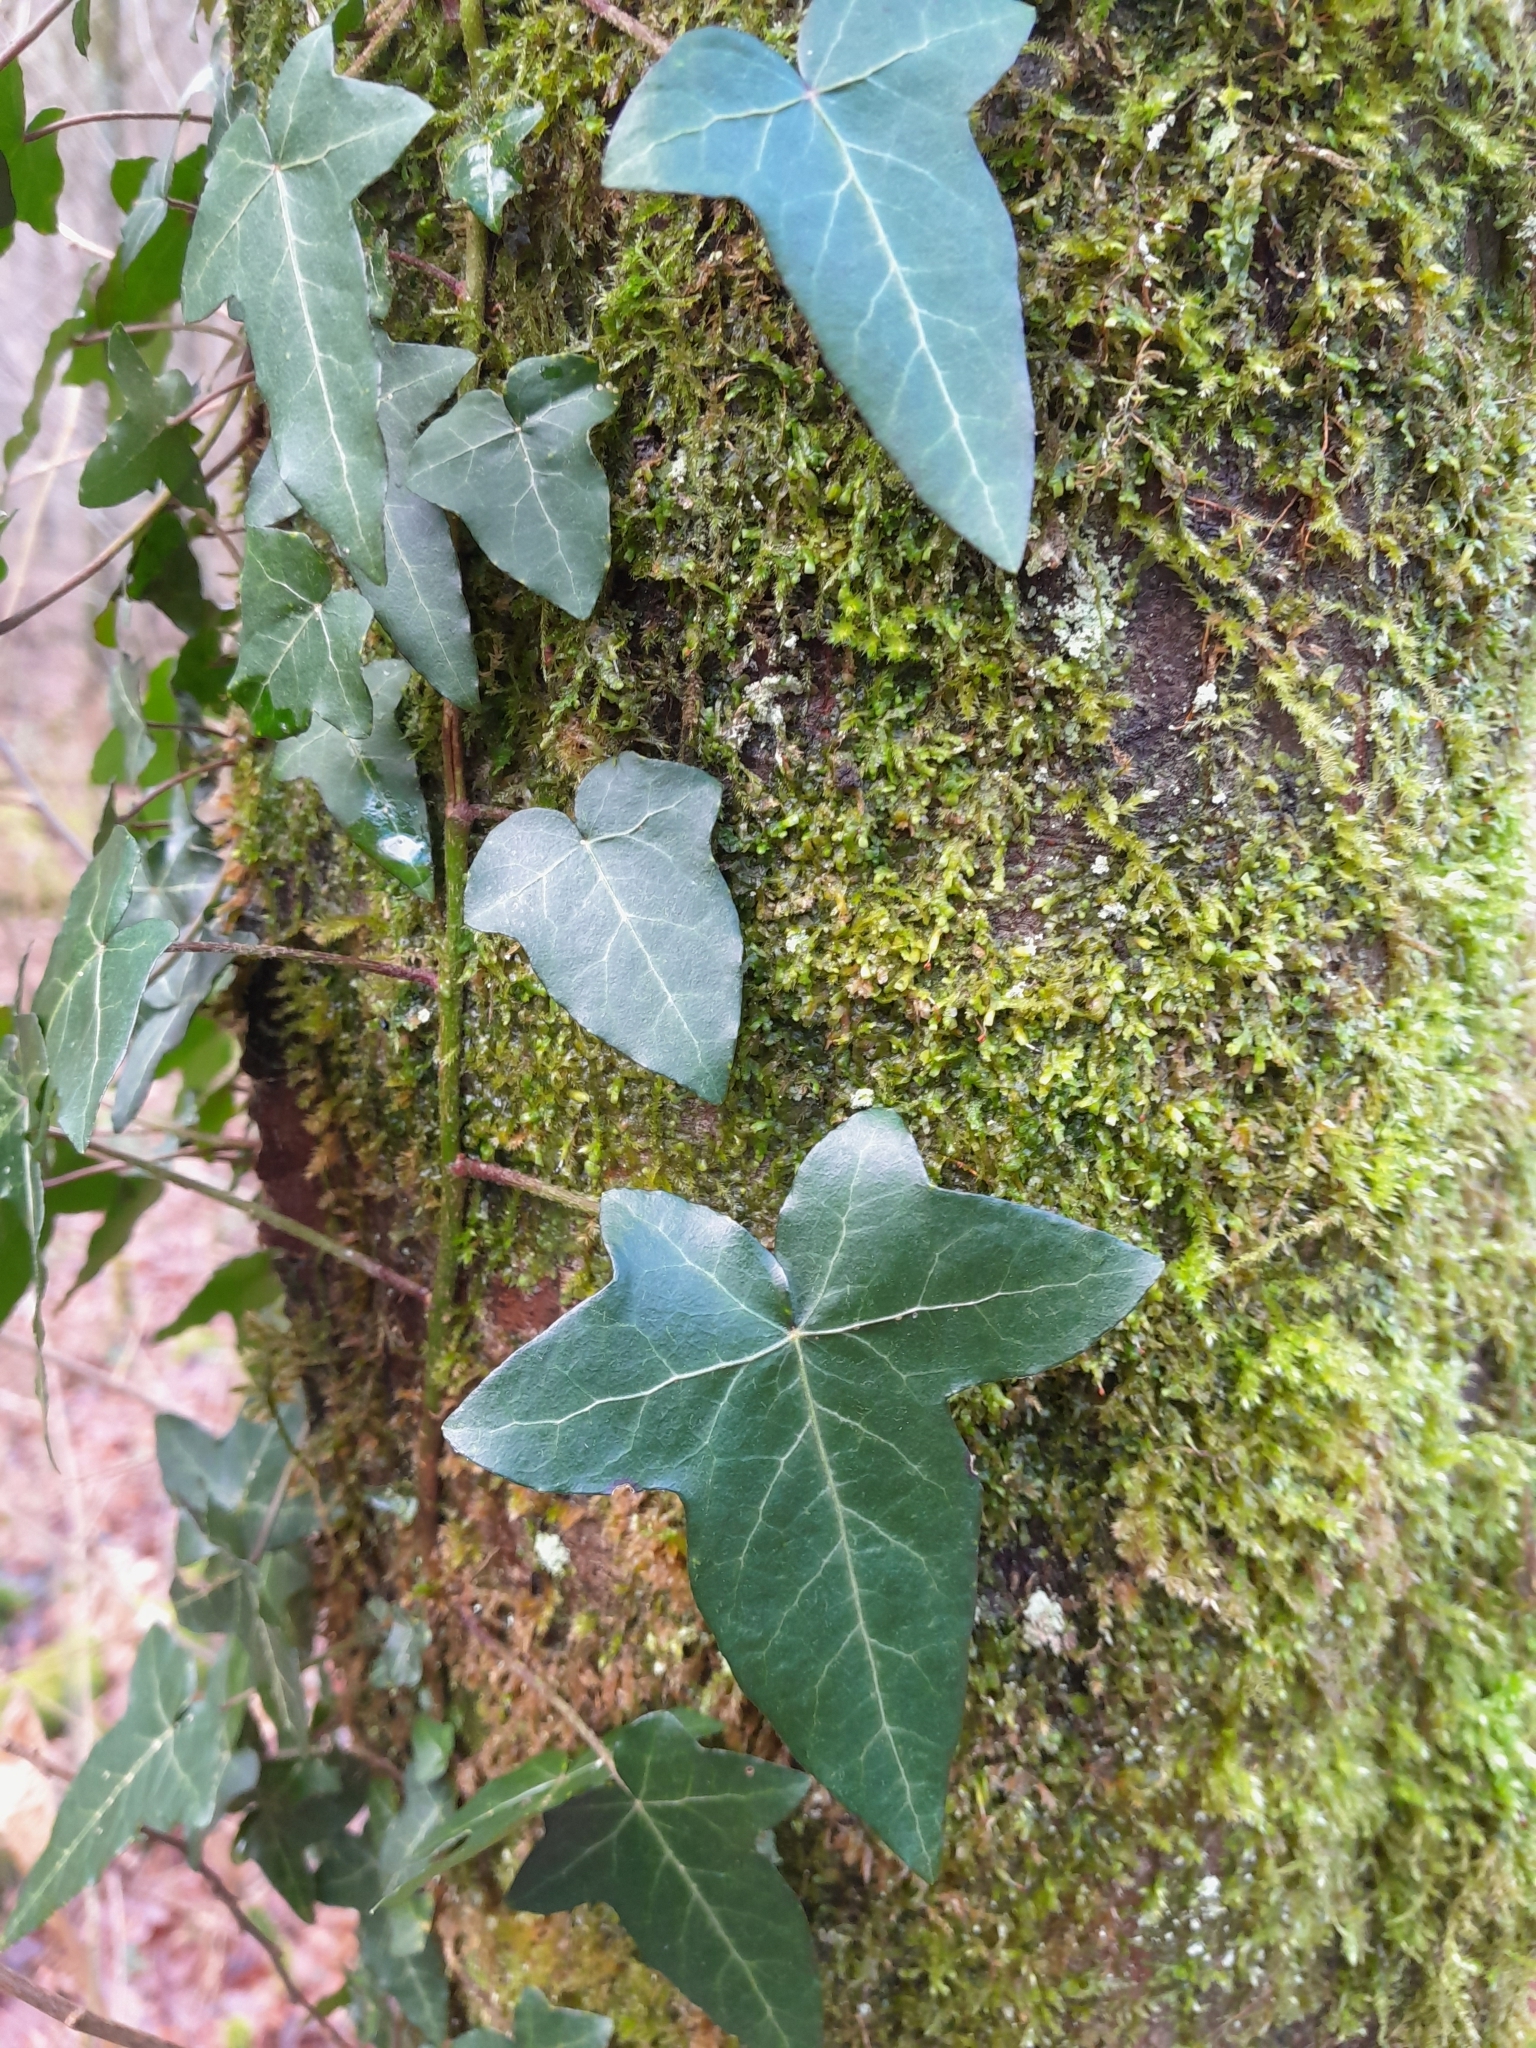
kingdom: Plantae
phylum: Tracheophyta
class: Magnoliopsida
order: Apiales
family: Araliaceae
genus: Hedera
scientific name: Hedera helix
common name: Ivy
